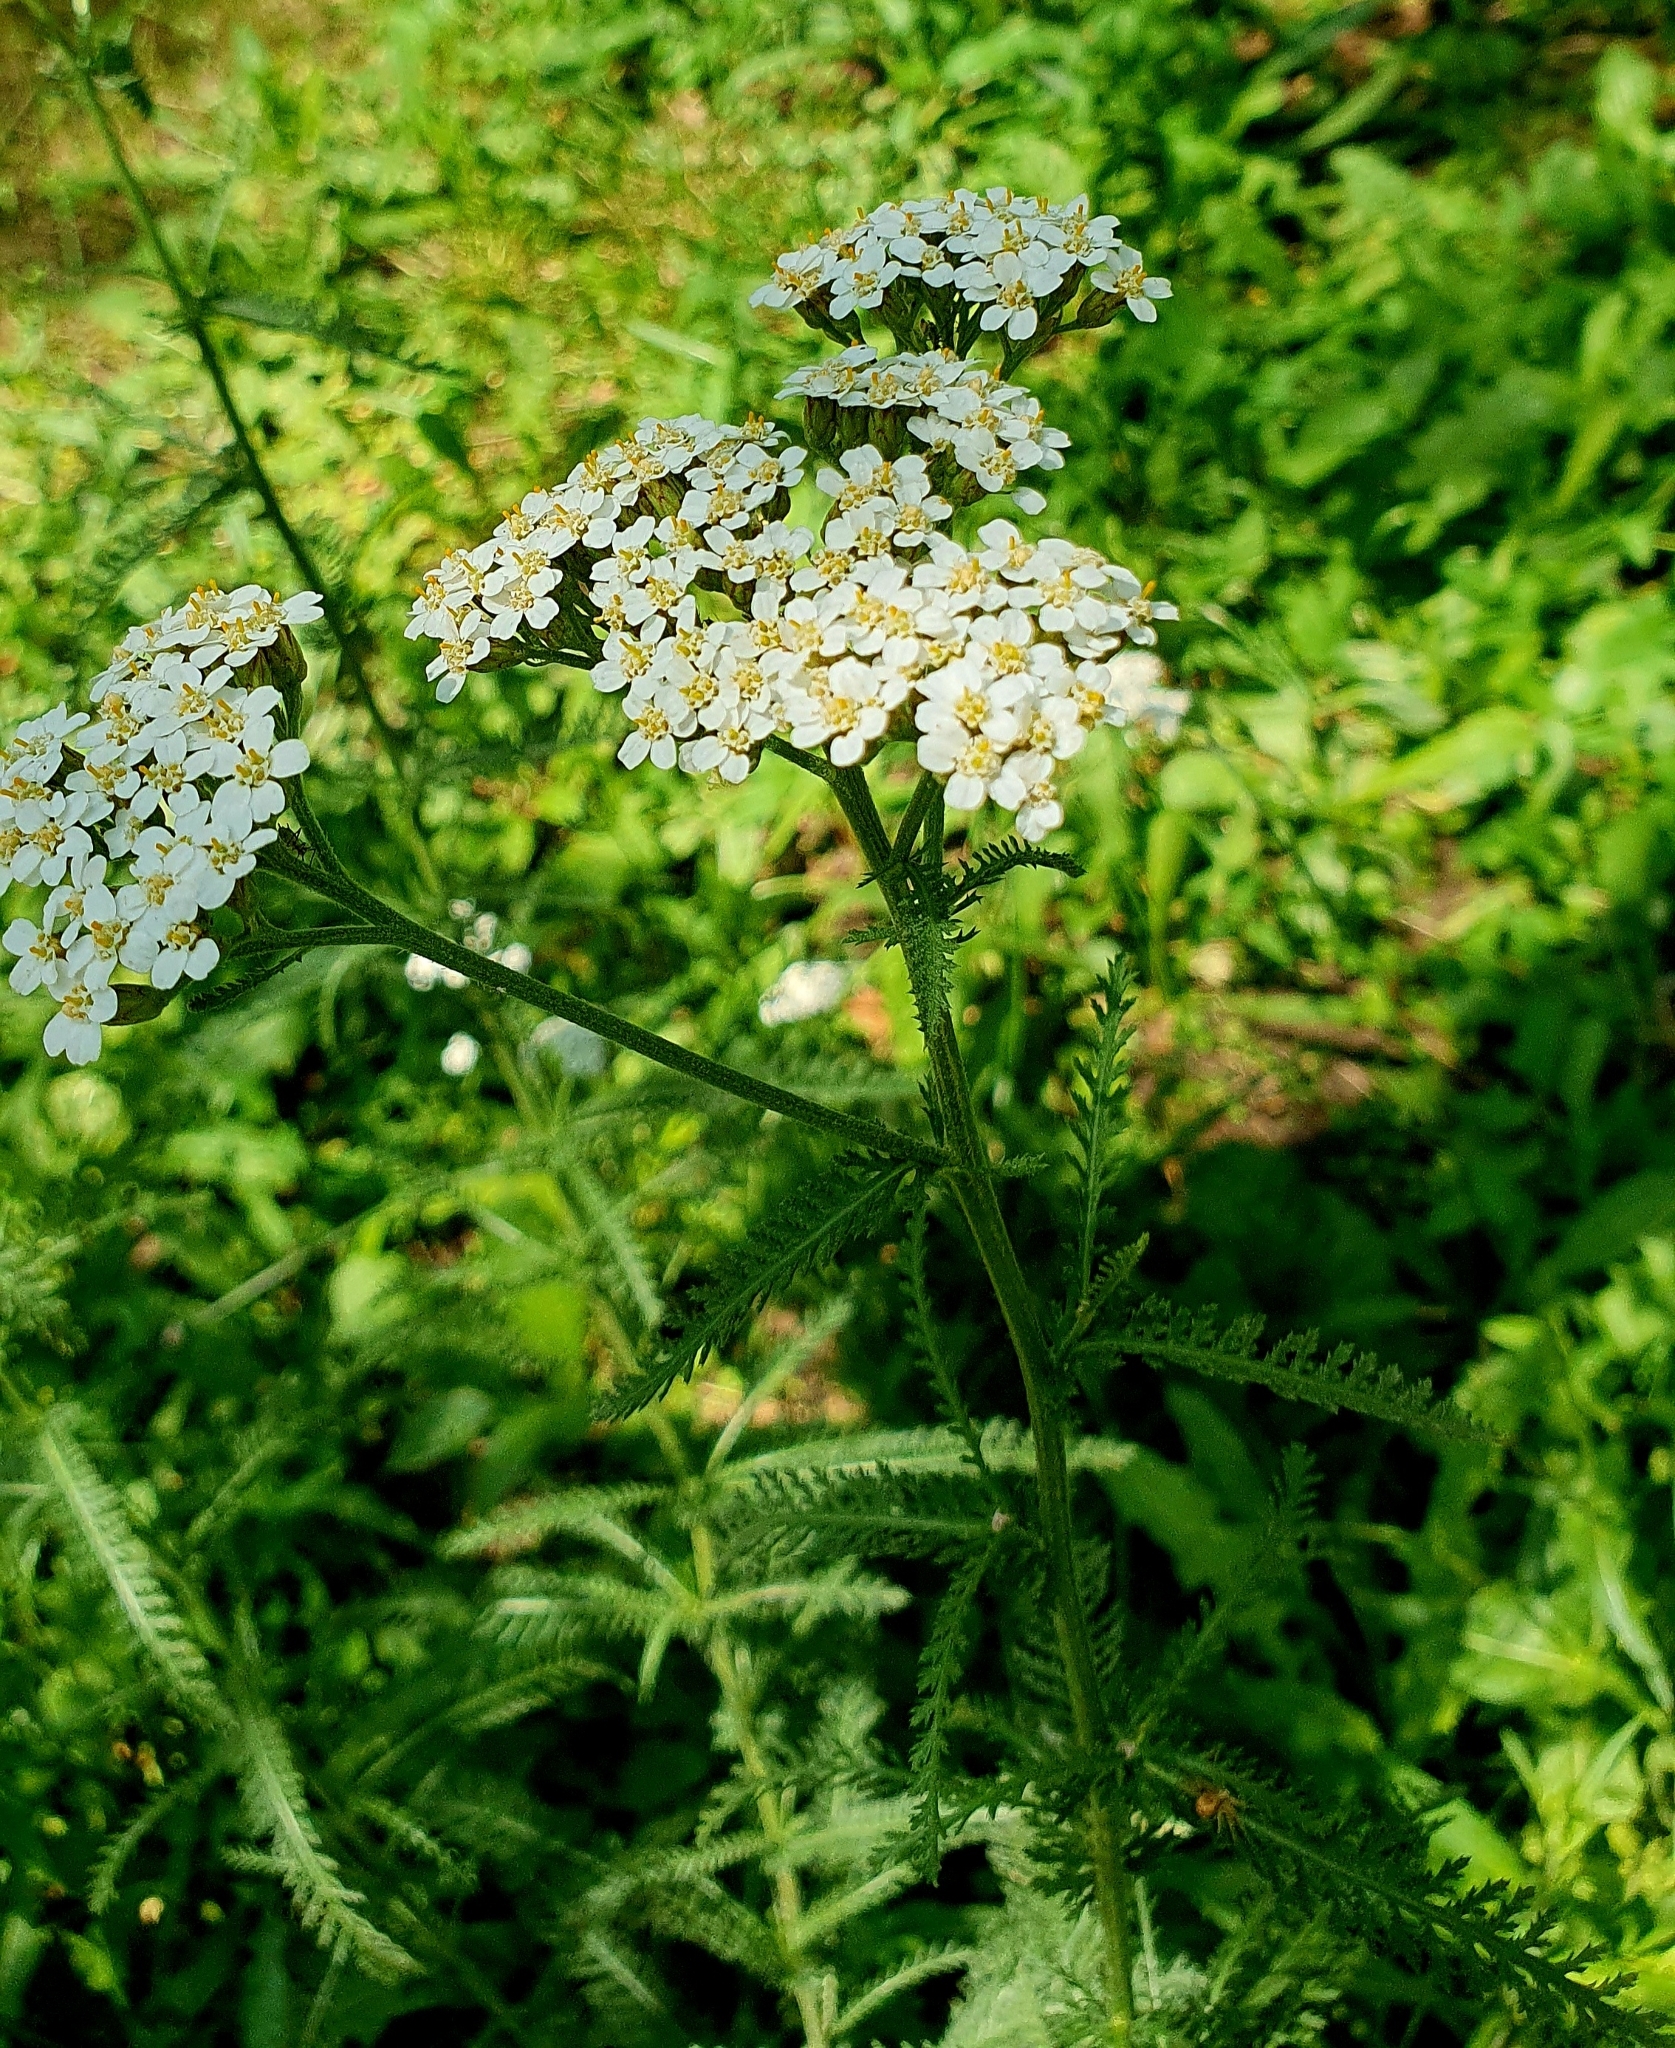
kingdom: Plantae
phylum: Tracheophyta
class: Magnoliopsida
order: Asterales
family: Asteraceae
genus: Achillea
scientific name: Achillea millefolium
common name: Yarrow
